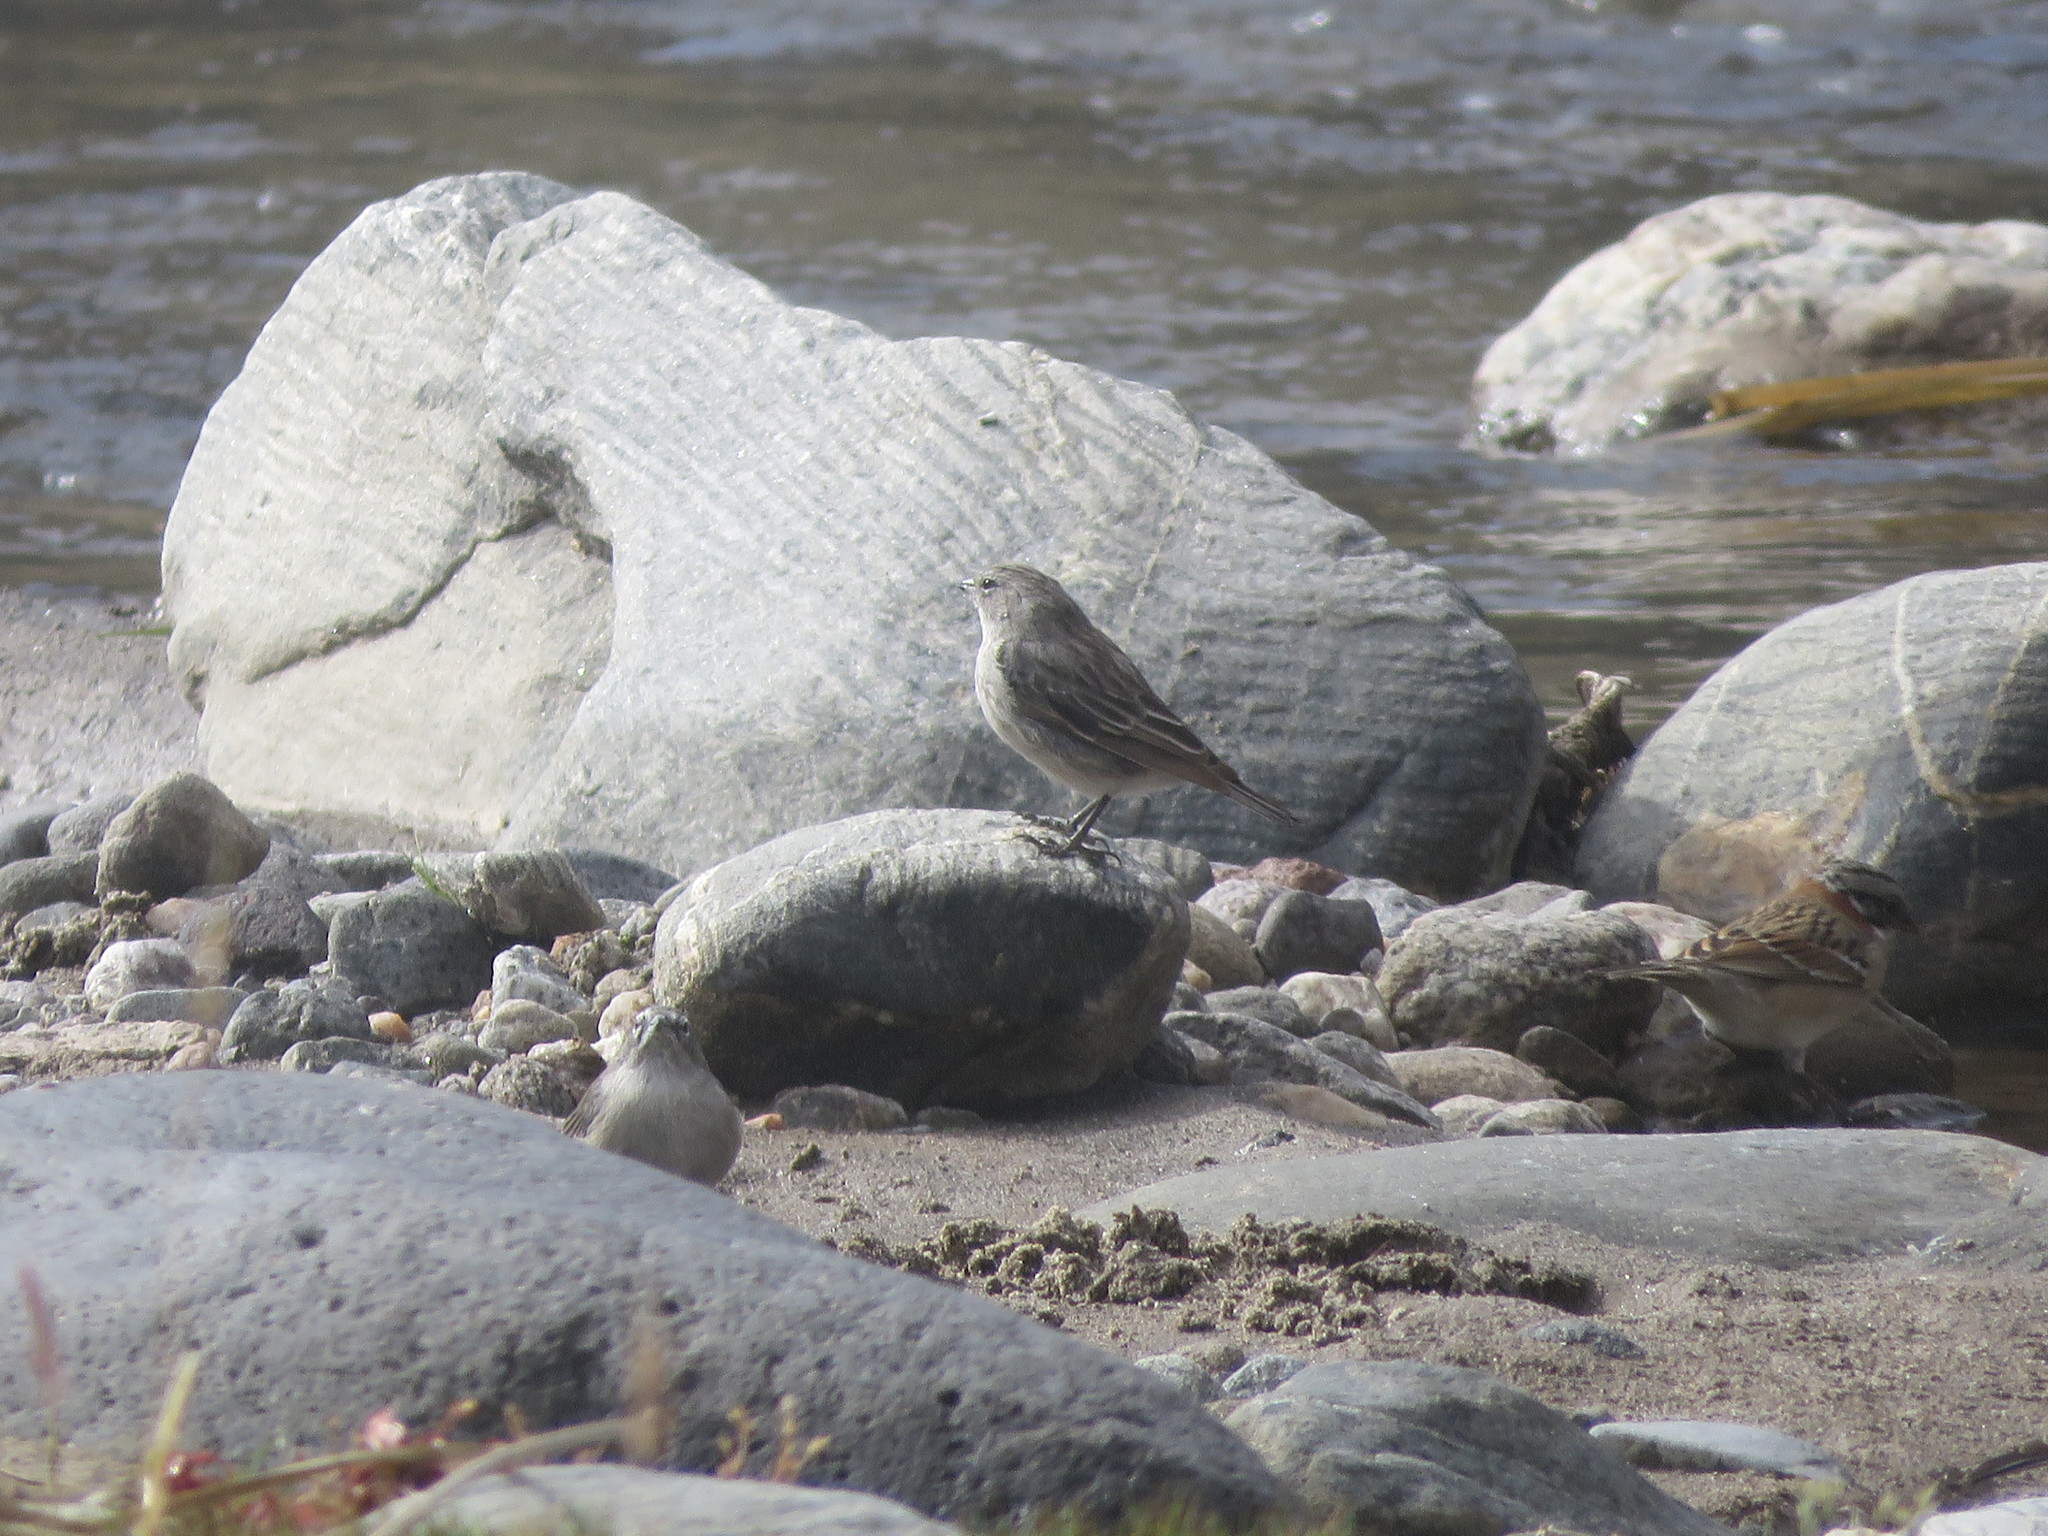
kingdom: Animalia
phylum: Chordata
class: Aves
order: Passeriformes
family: Thraupidae
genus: Geospizopsis
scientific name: Geospizopsis plebejus
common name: Ash-breasted sierra-finch
